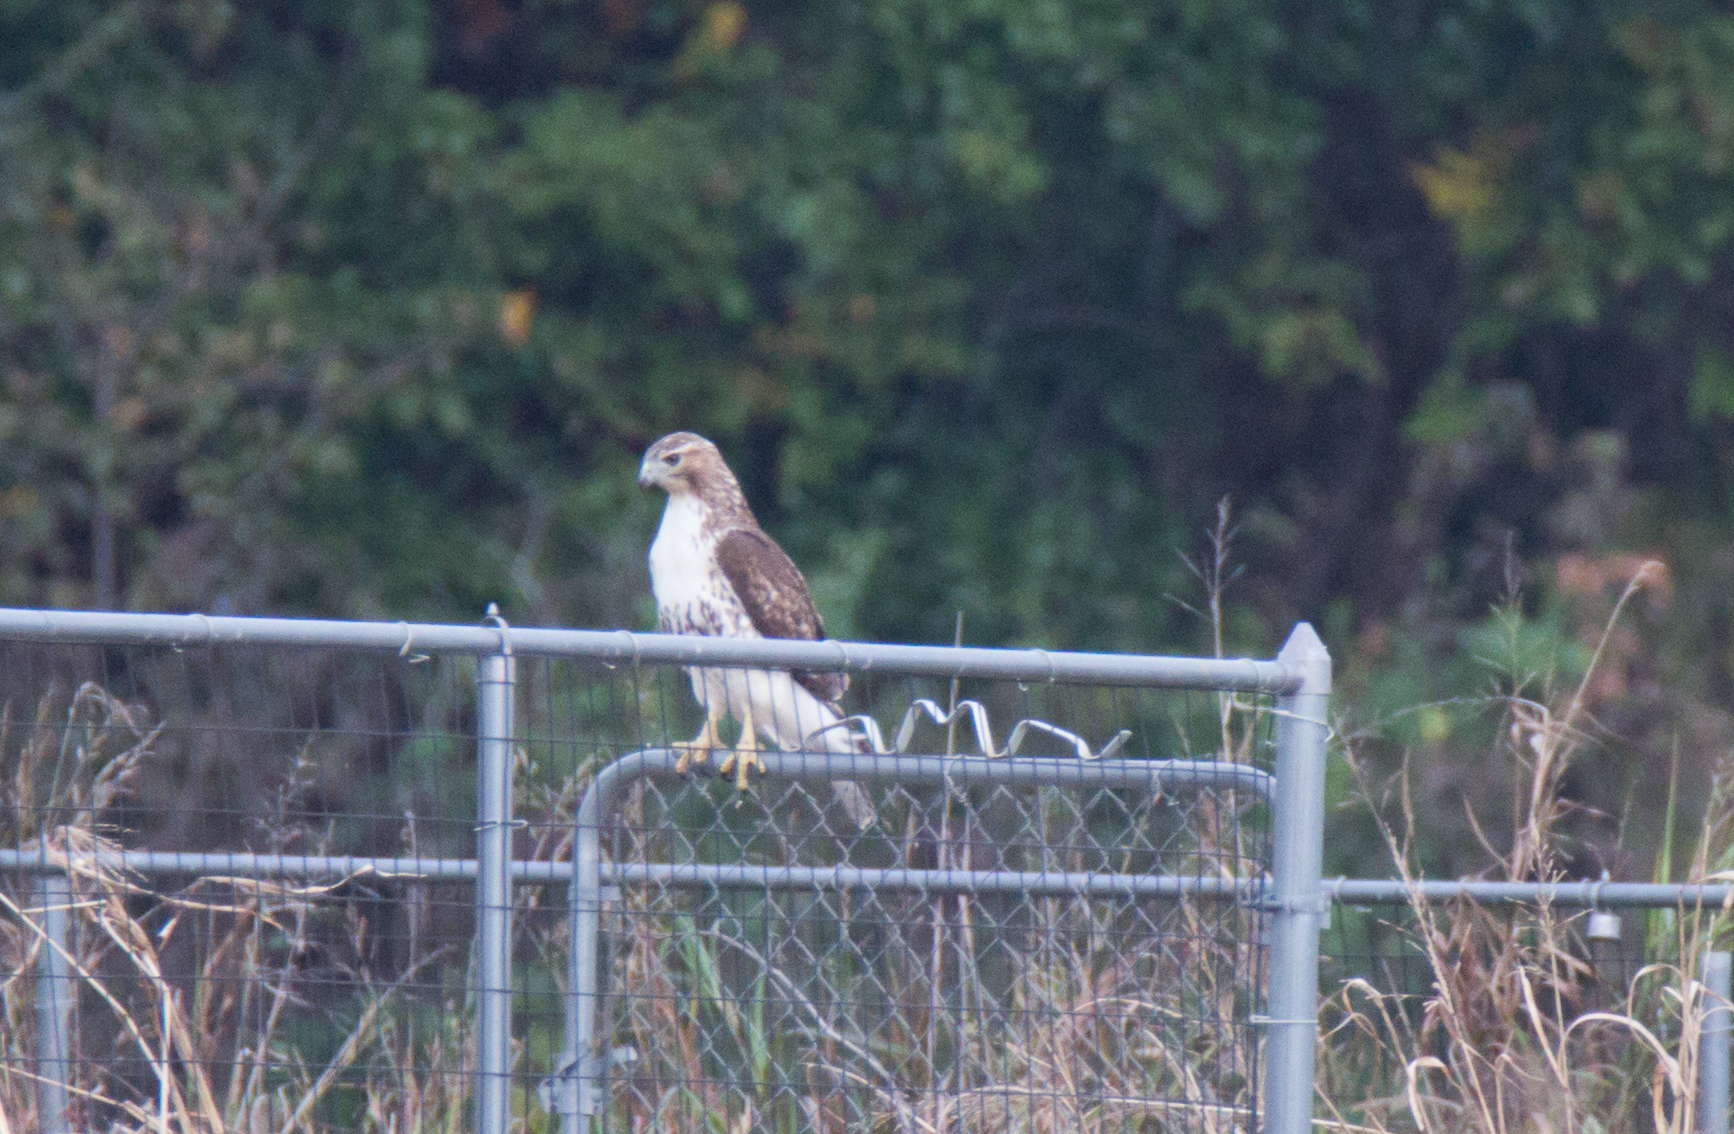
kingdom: Animalia
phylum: Chordata
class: Aves
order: Accipitriformes
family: Accipitridae
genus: Buteo
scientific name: Buteo jamaicensis
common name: Red-tailed hawk
